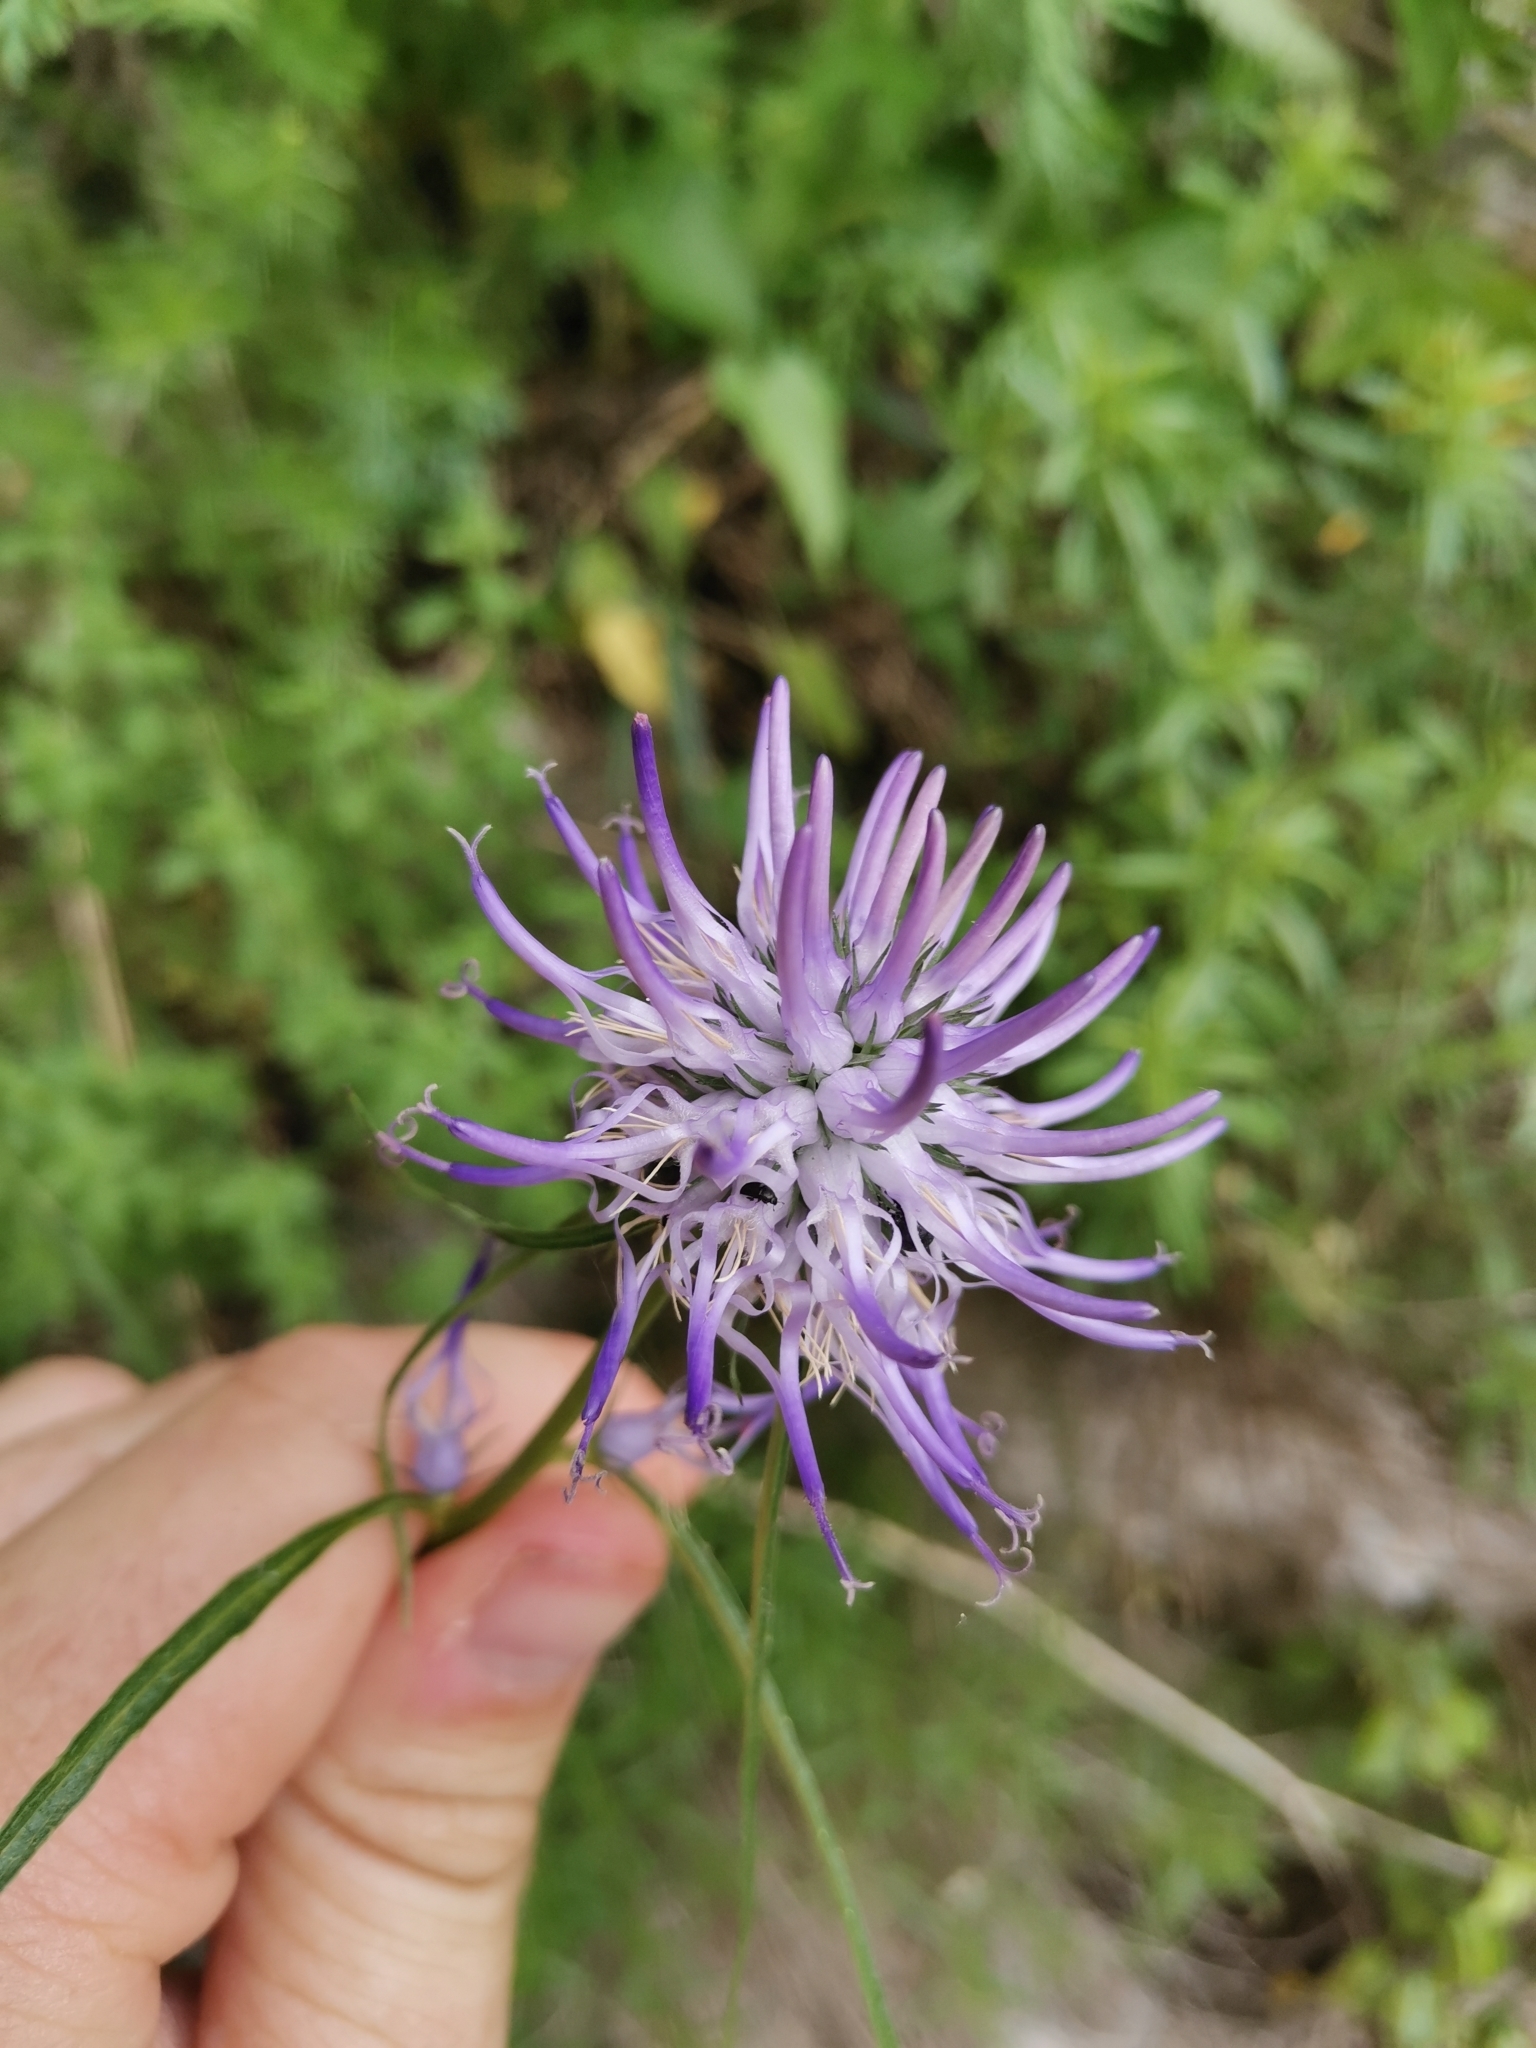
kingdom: Plantae
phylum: Tracheophyta
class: Magnoliopsida
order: Asterales
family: Campanulaceae
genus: Phyteuma
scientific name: Phyteuma scheuchzeri
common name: Oxford rampion
